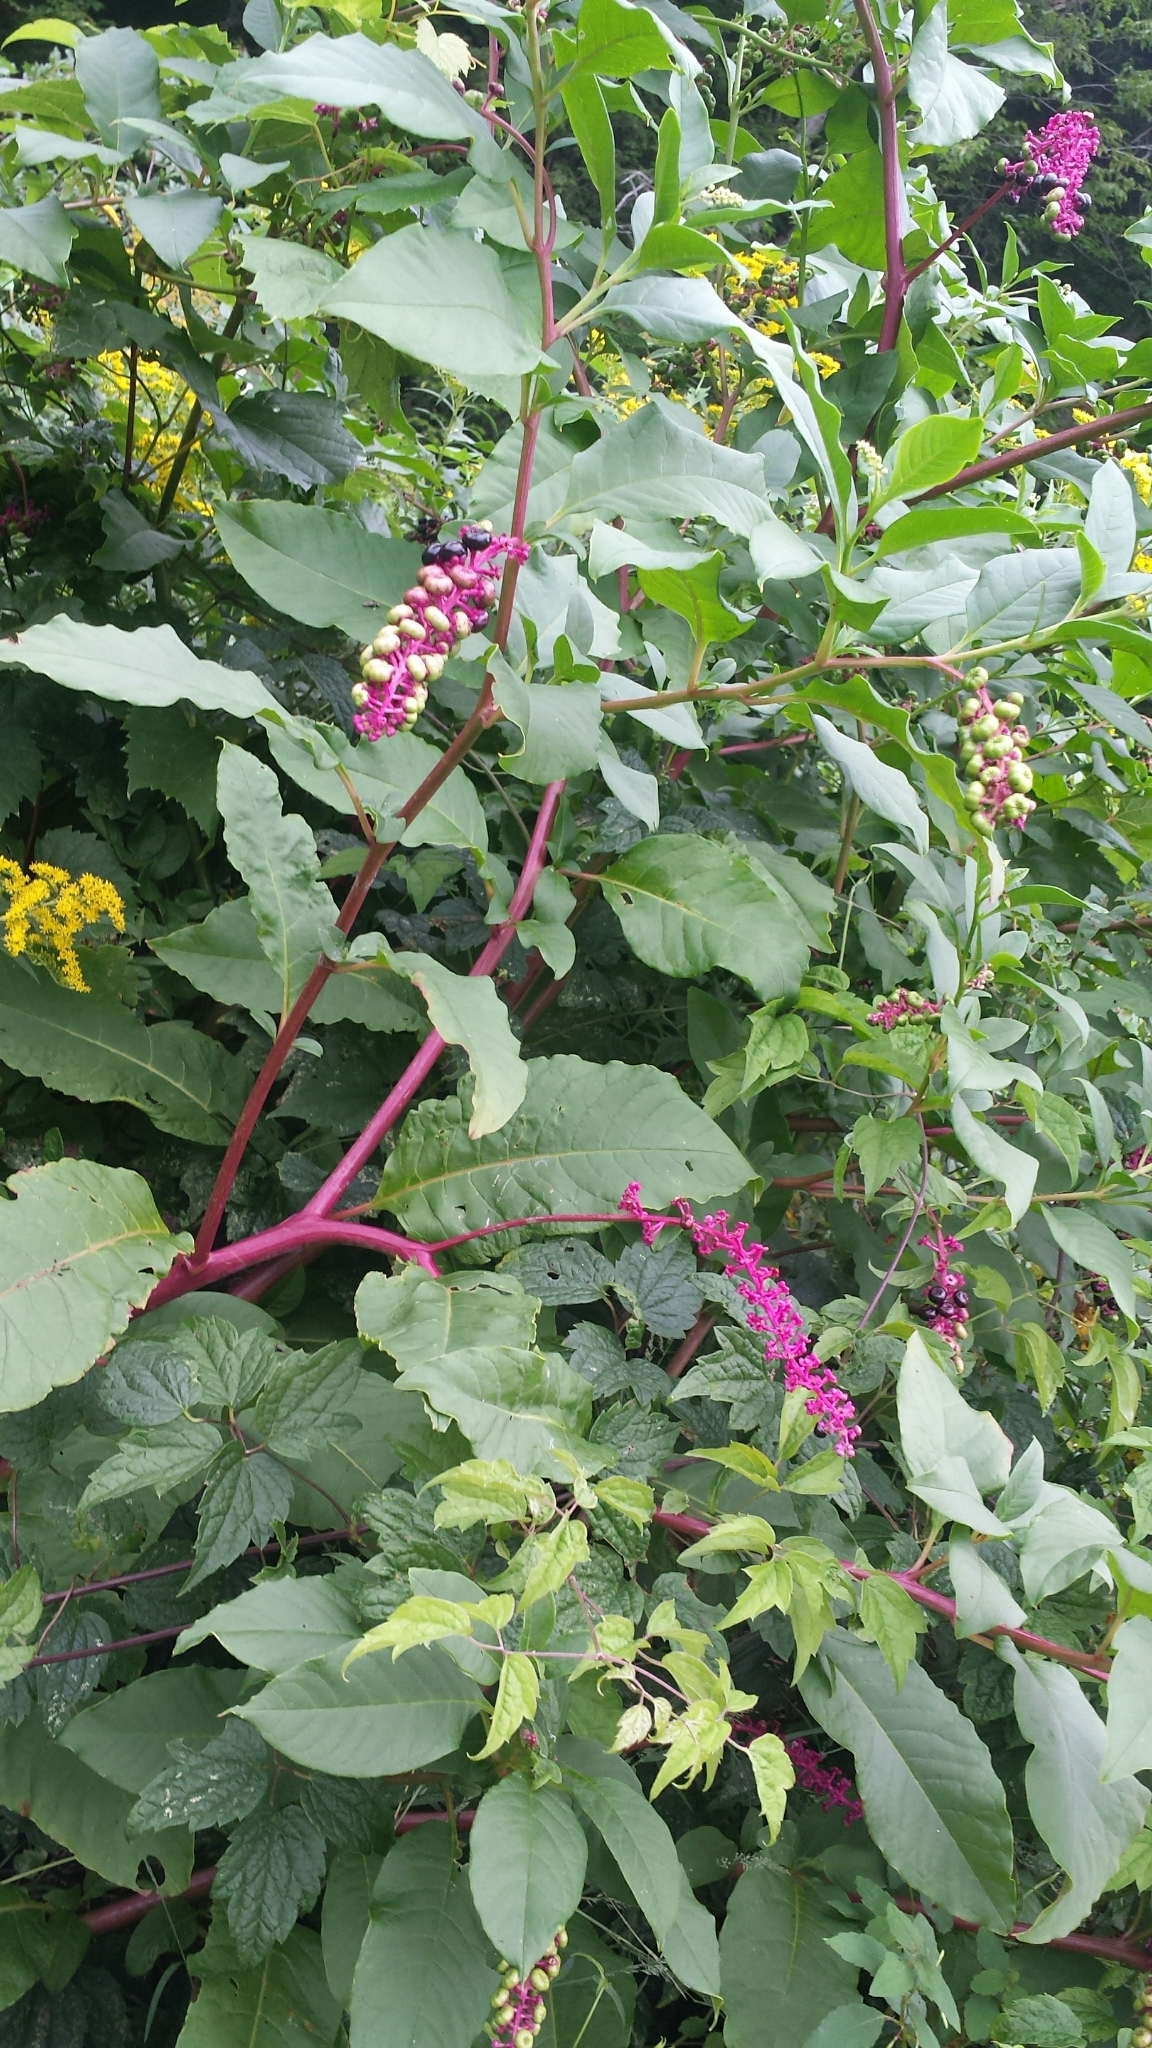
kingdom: Plantae
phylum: Tracheophyta
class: Magnoliopsida
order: Caryophyllales
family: Phytolaccaceae
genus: Phytolacca
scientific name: Phytolacca americana
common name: American pokeweed
